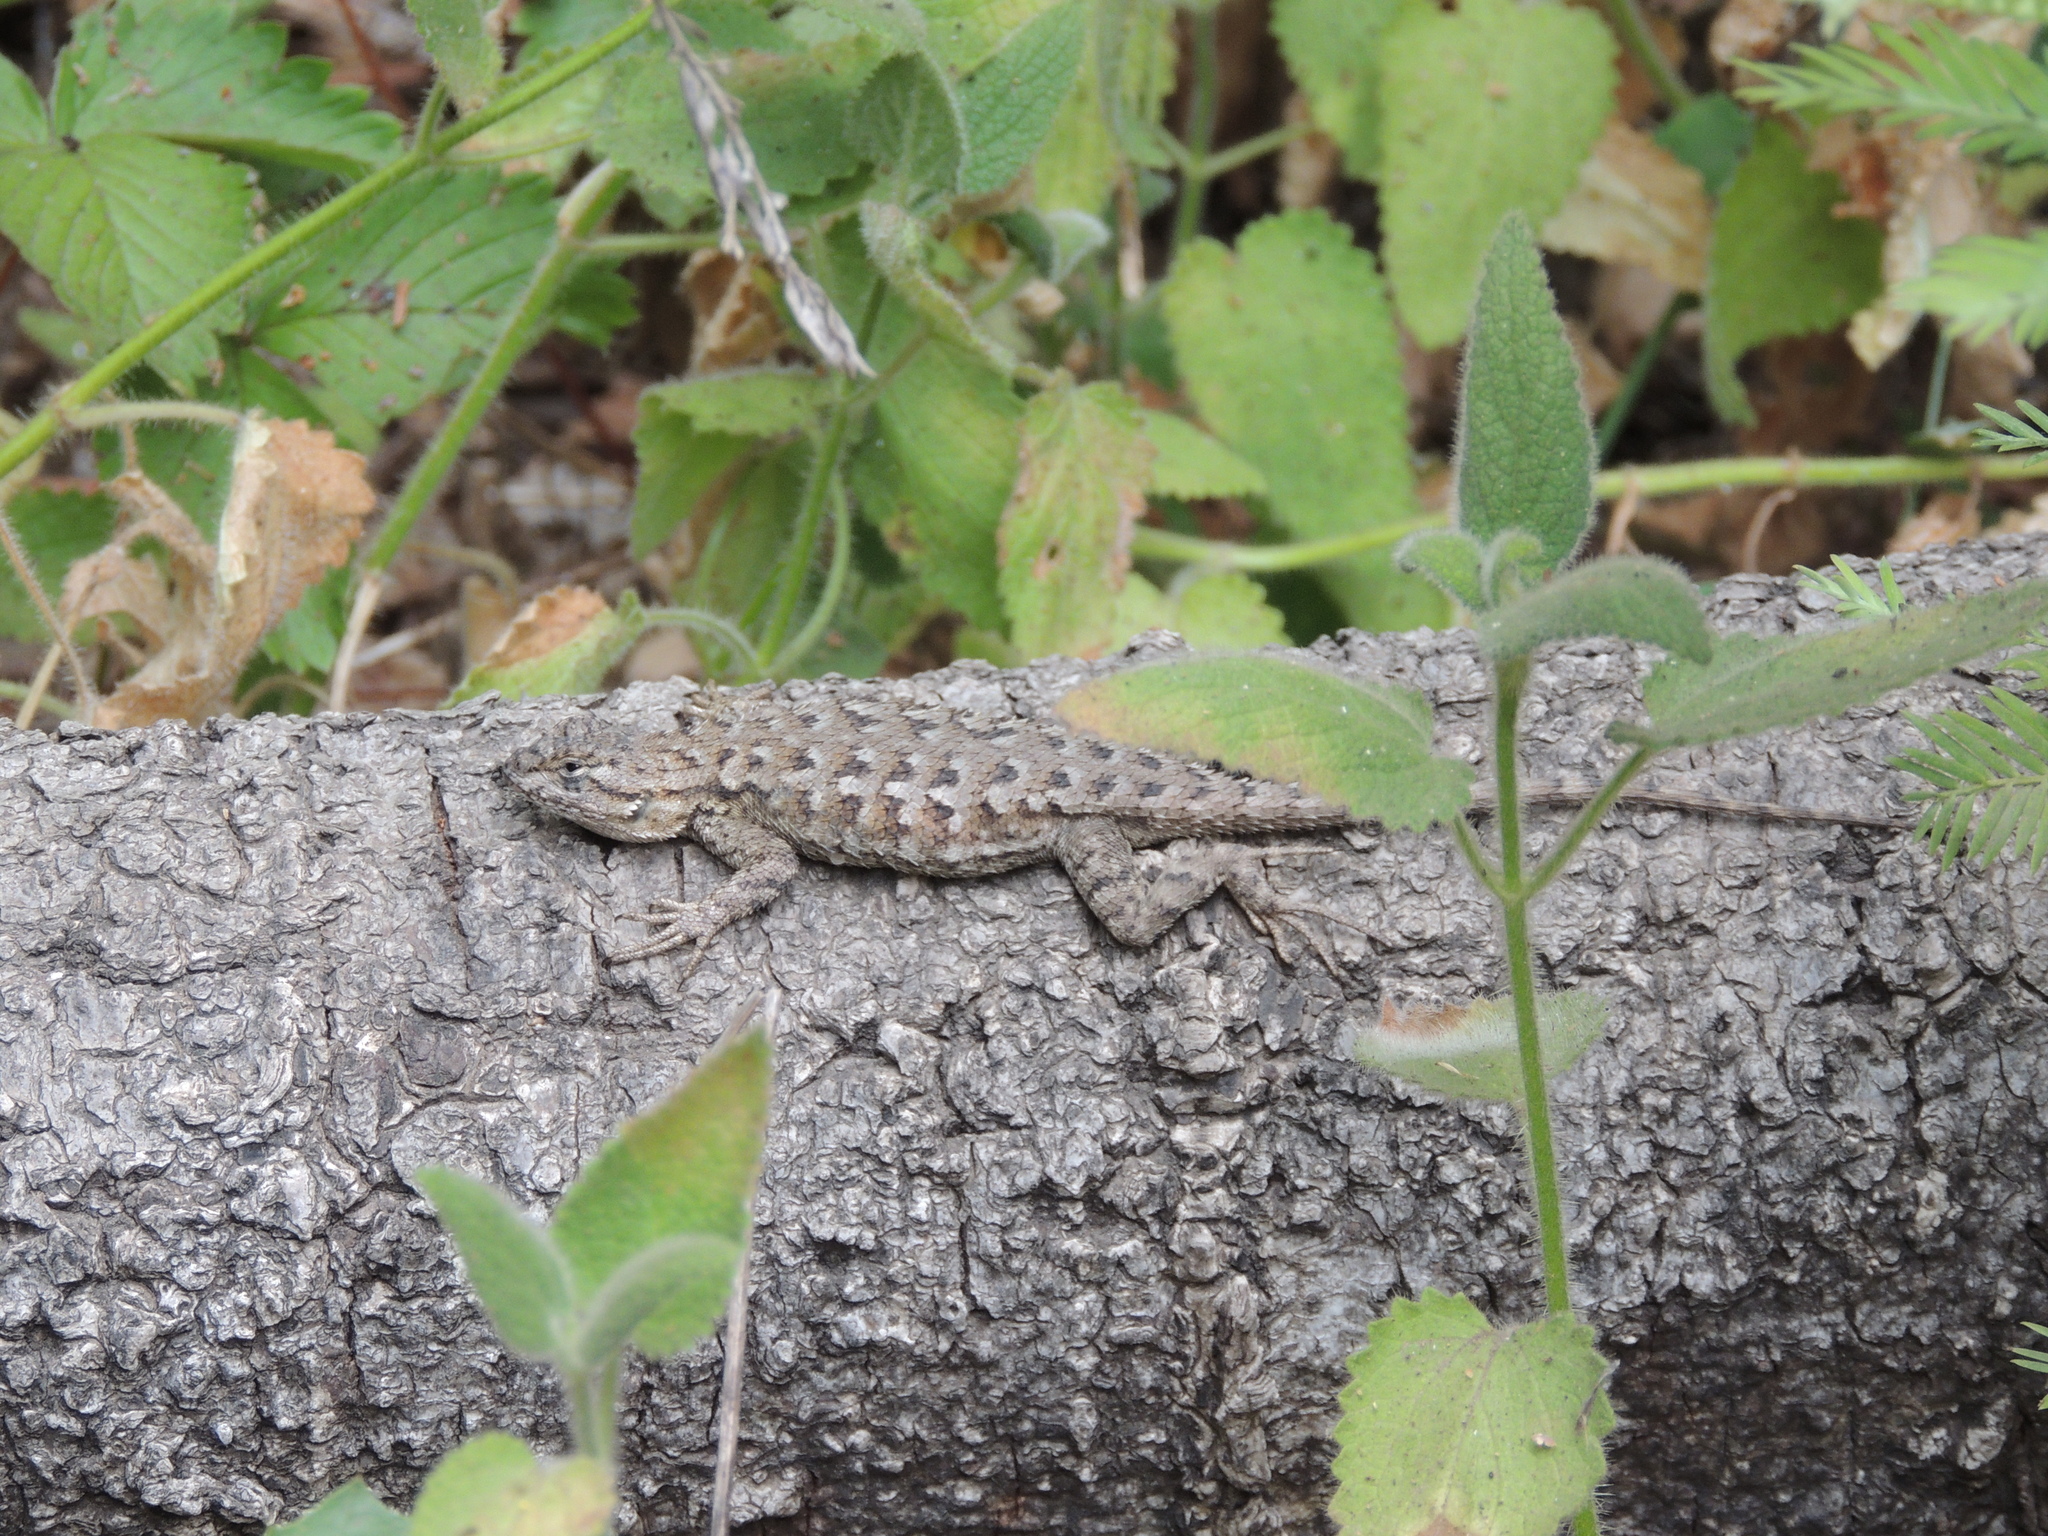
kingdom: Animalia
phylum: Chordata
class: Squamata
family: Phrynosomatidae
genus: Sceloporus
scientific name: Sceloporus occidentalis
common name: Western fence lizard
